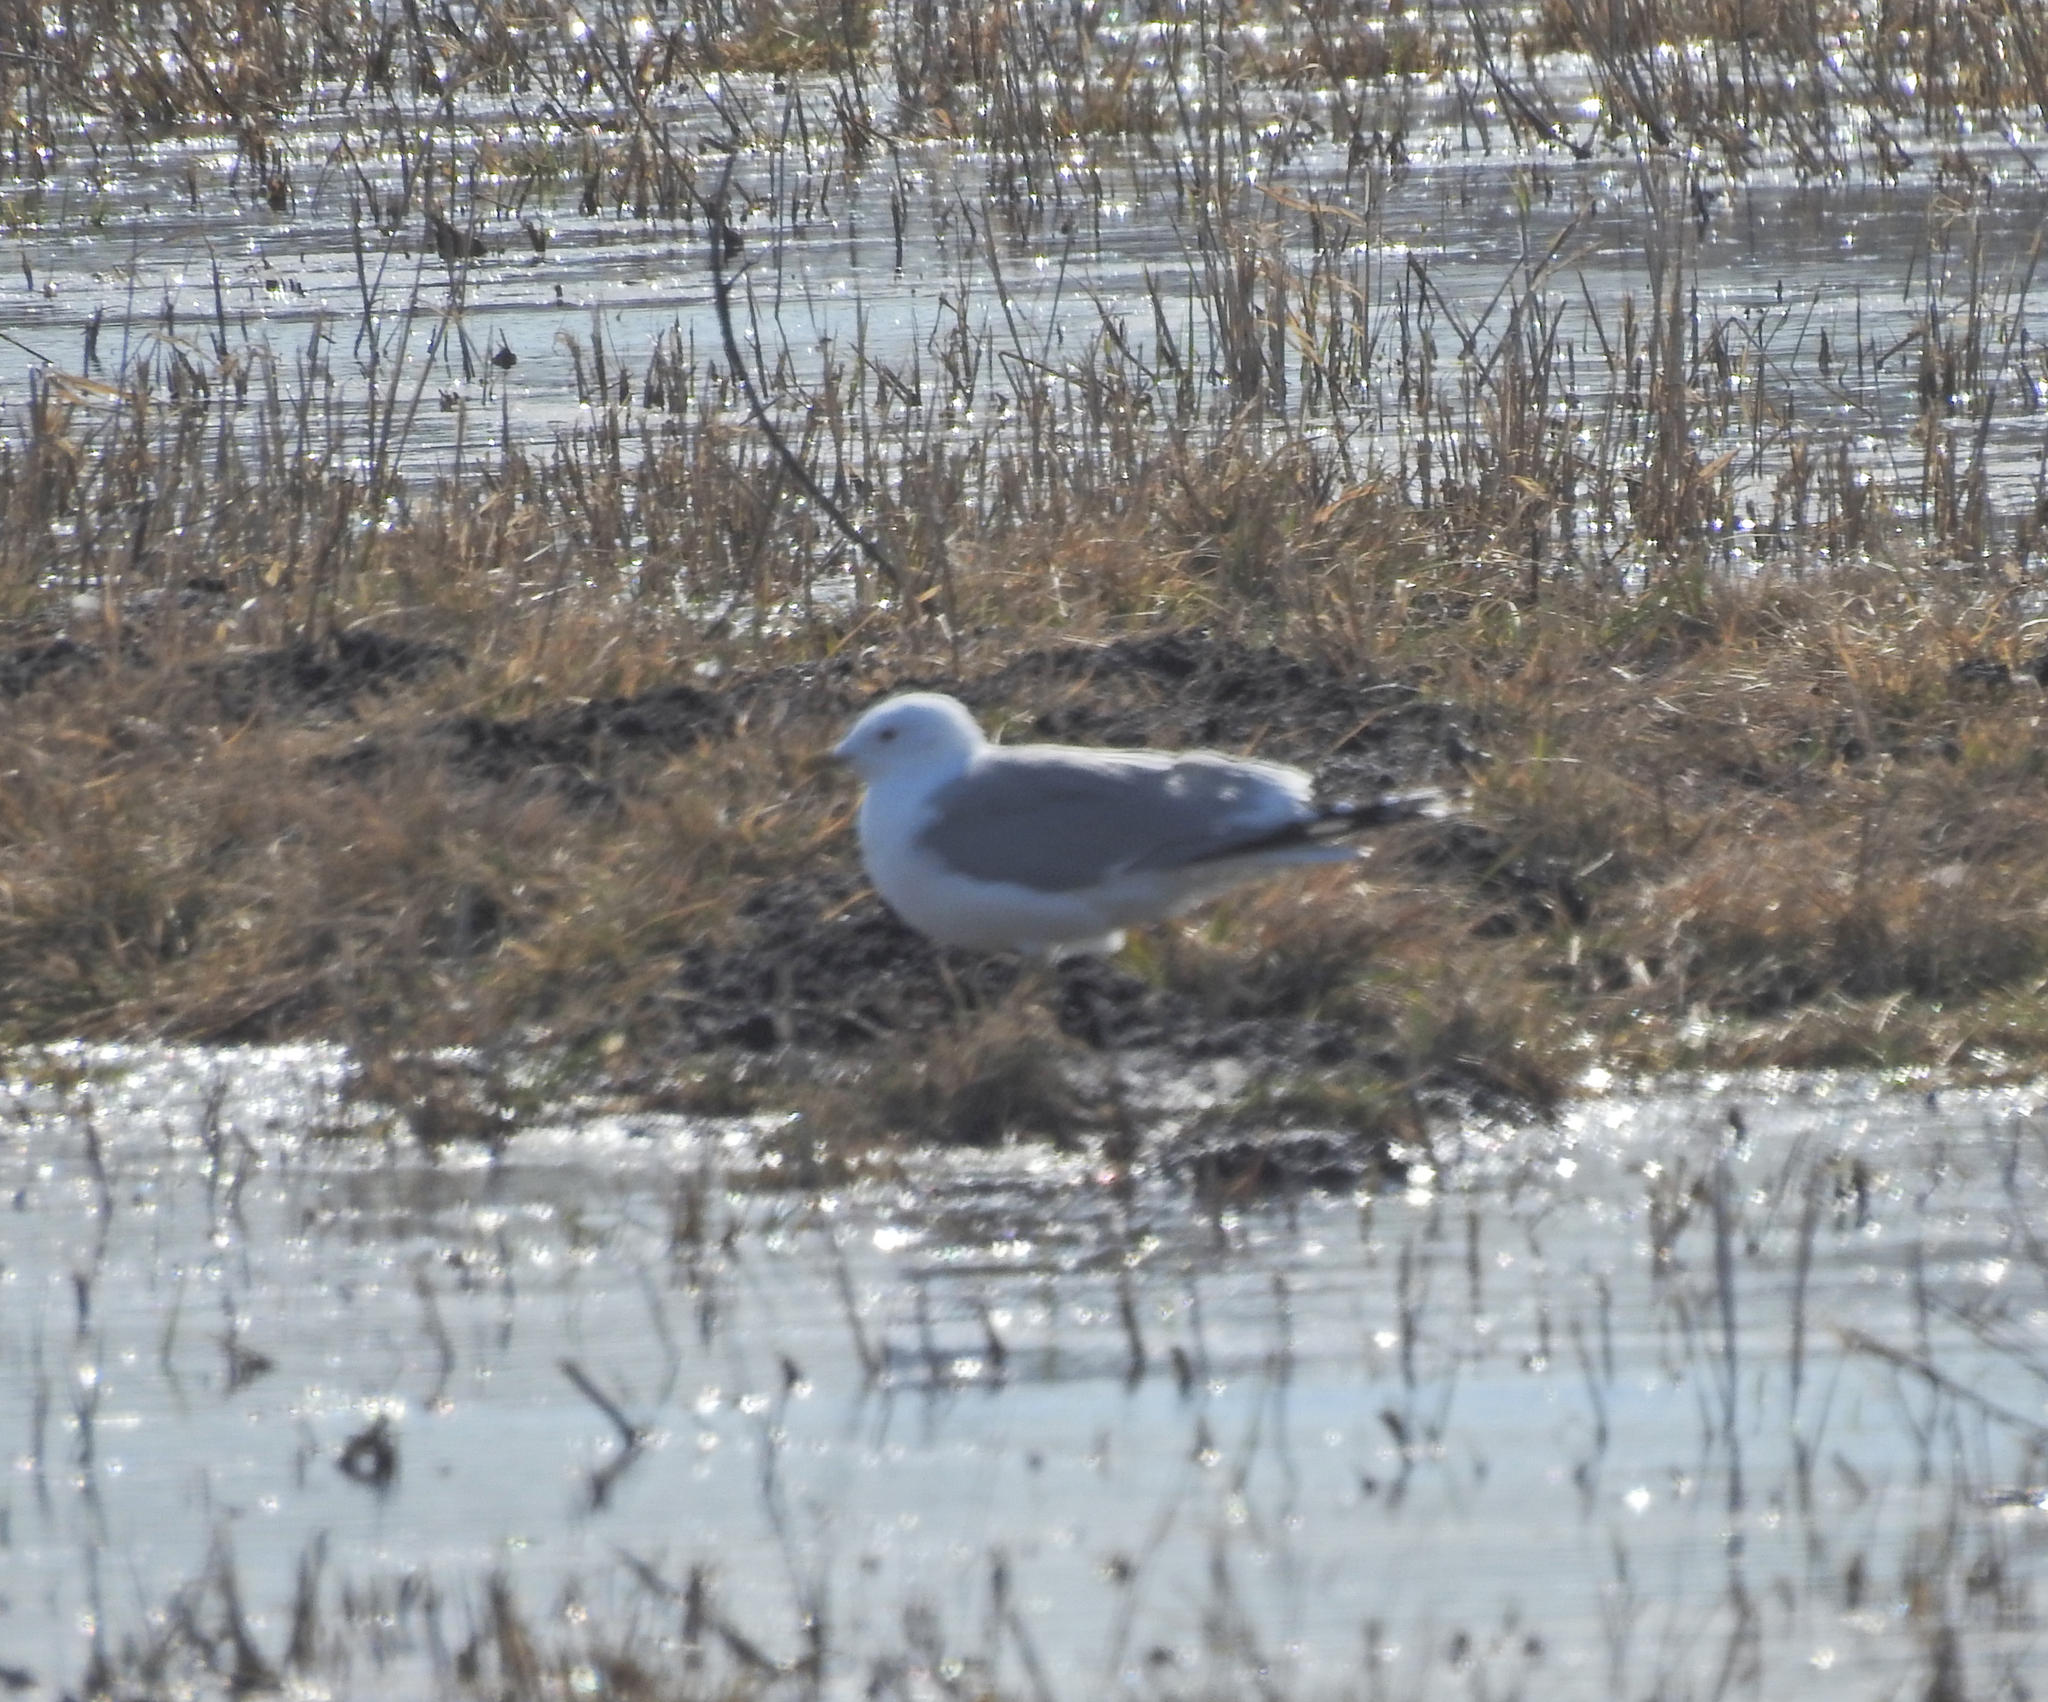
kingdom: Animalia
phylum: Chordata
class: Aves
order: Charadriiformes
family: Laridae
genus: Larus
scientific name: Larus canus
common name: Mew gull
